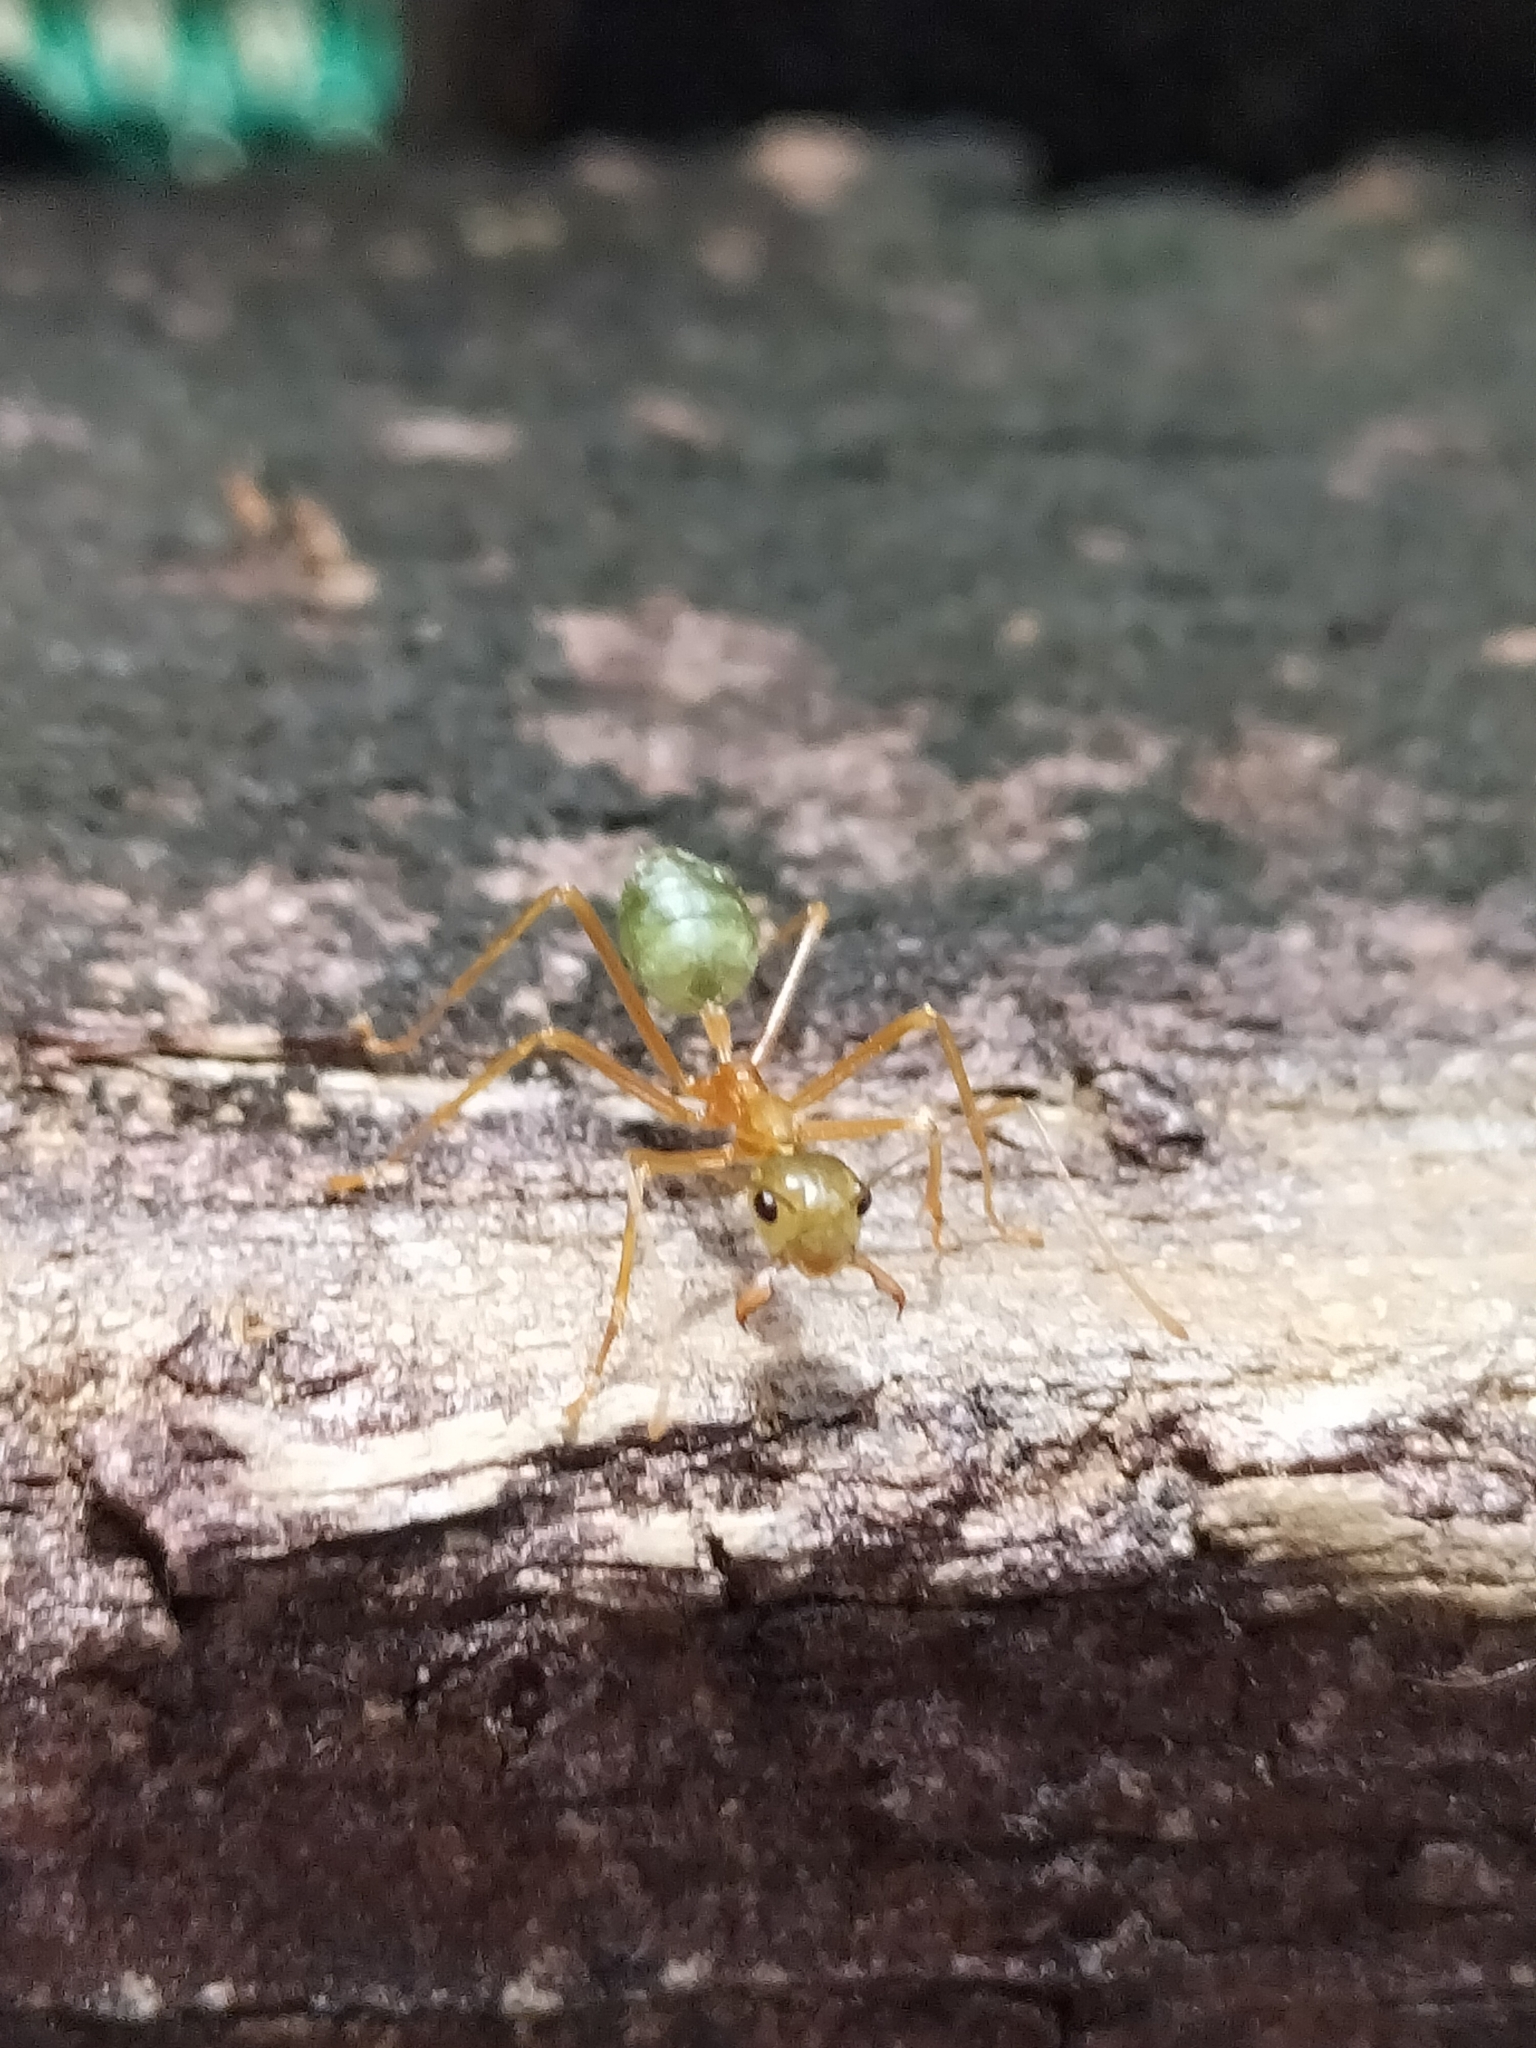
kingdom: Animalia
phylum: Arthropoda
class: Insecta
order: Hymenoptera
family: Formicidae
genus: Oecophylla
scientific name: Oecophylla smaragdina
